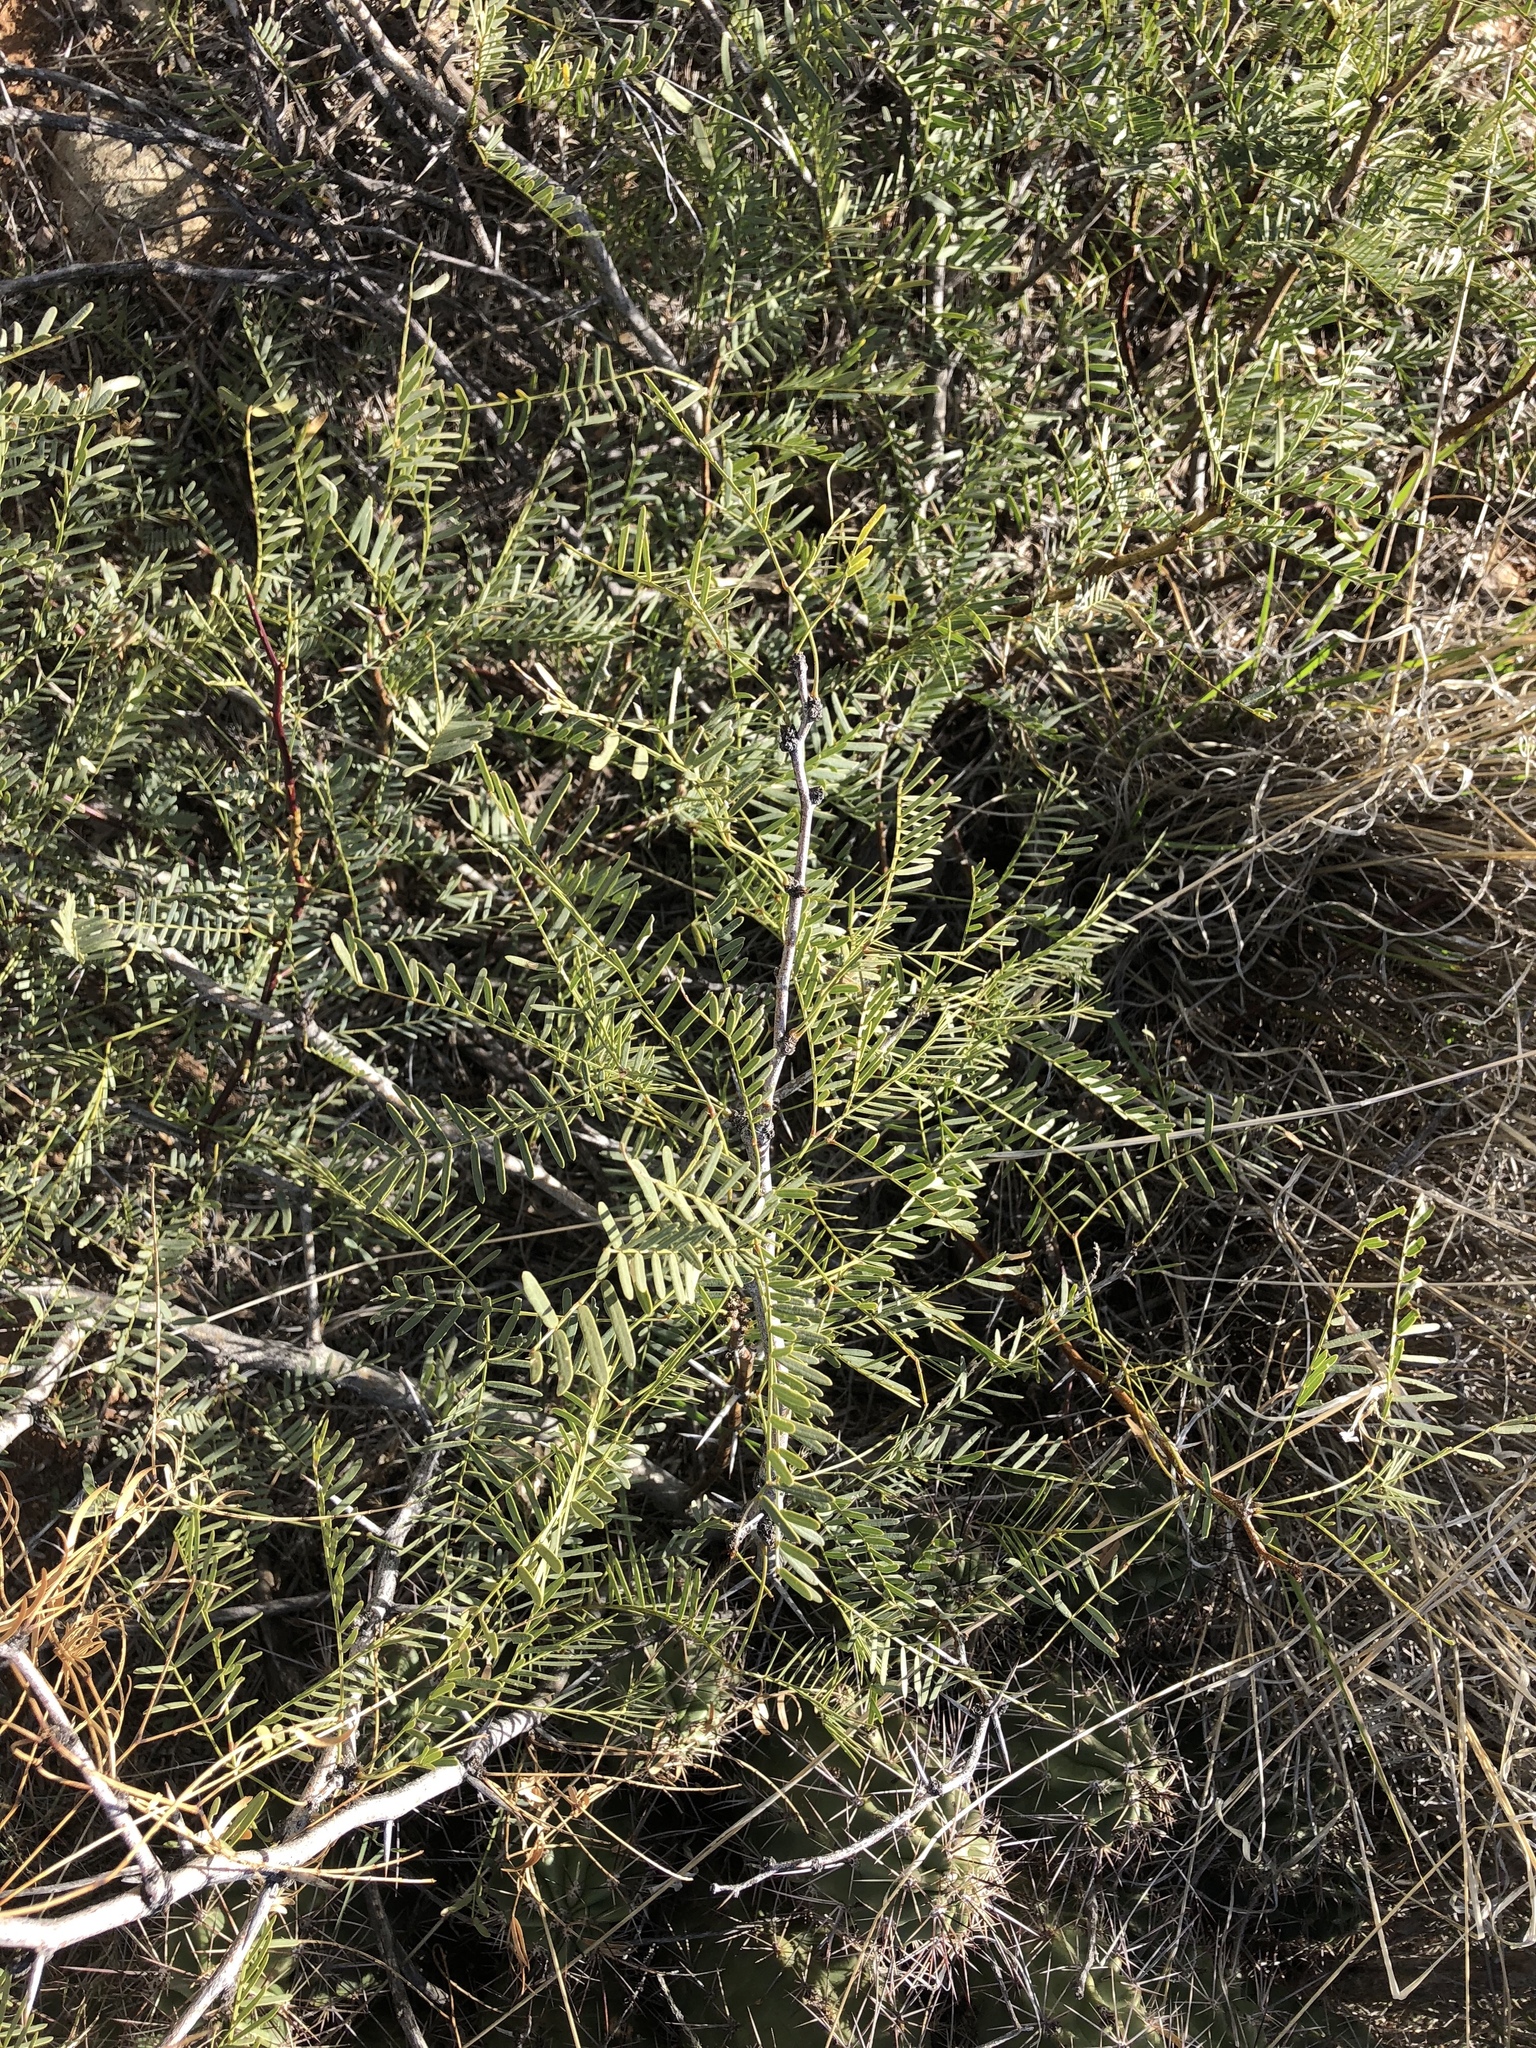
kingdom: Plantae
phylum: Tracheophyta
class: Magnoliopsida
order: Fabales
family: Fabaceae
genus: Prosopis
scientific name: Prosopis glandulosa
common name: Honey mesquite
